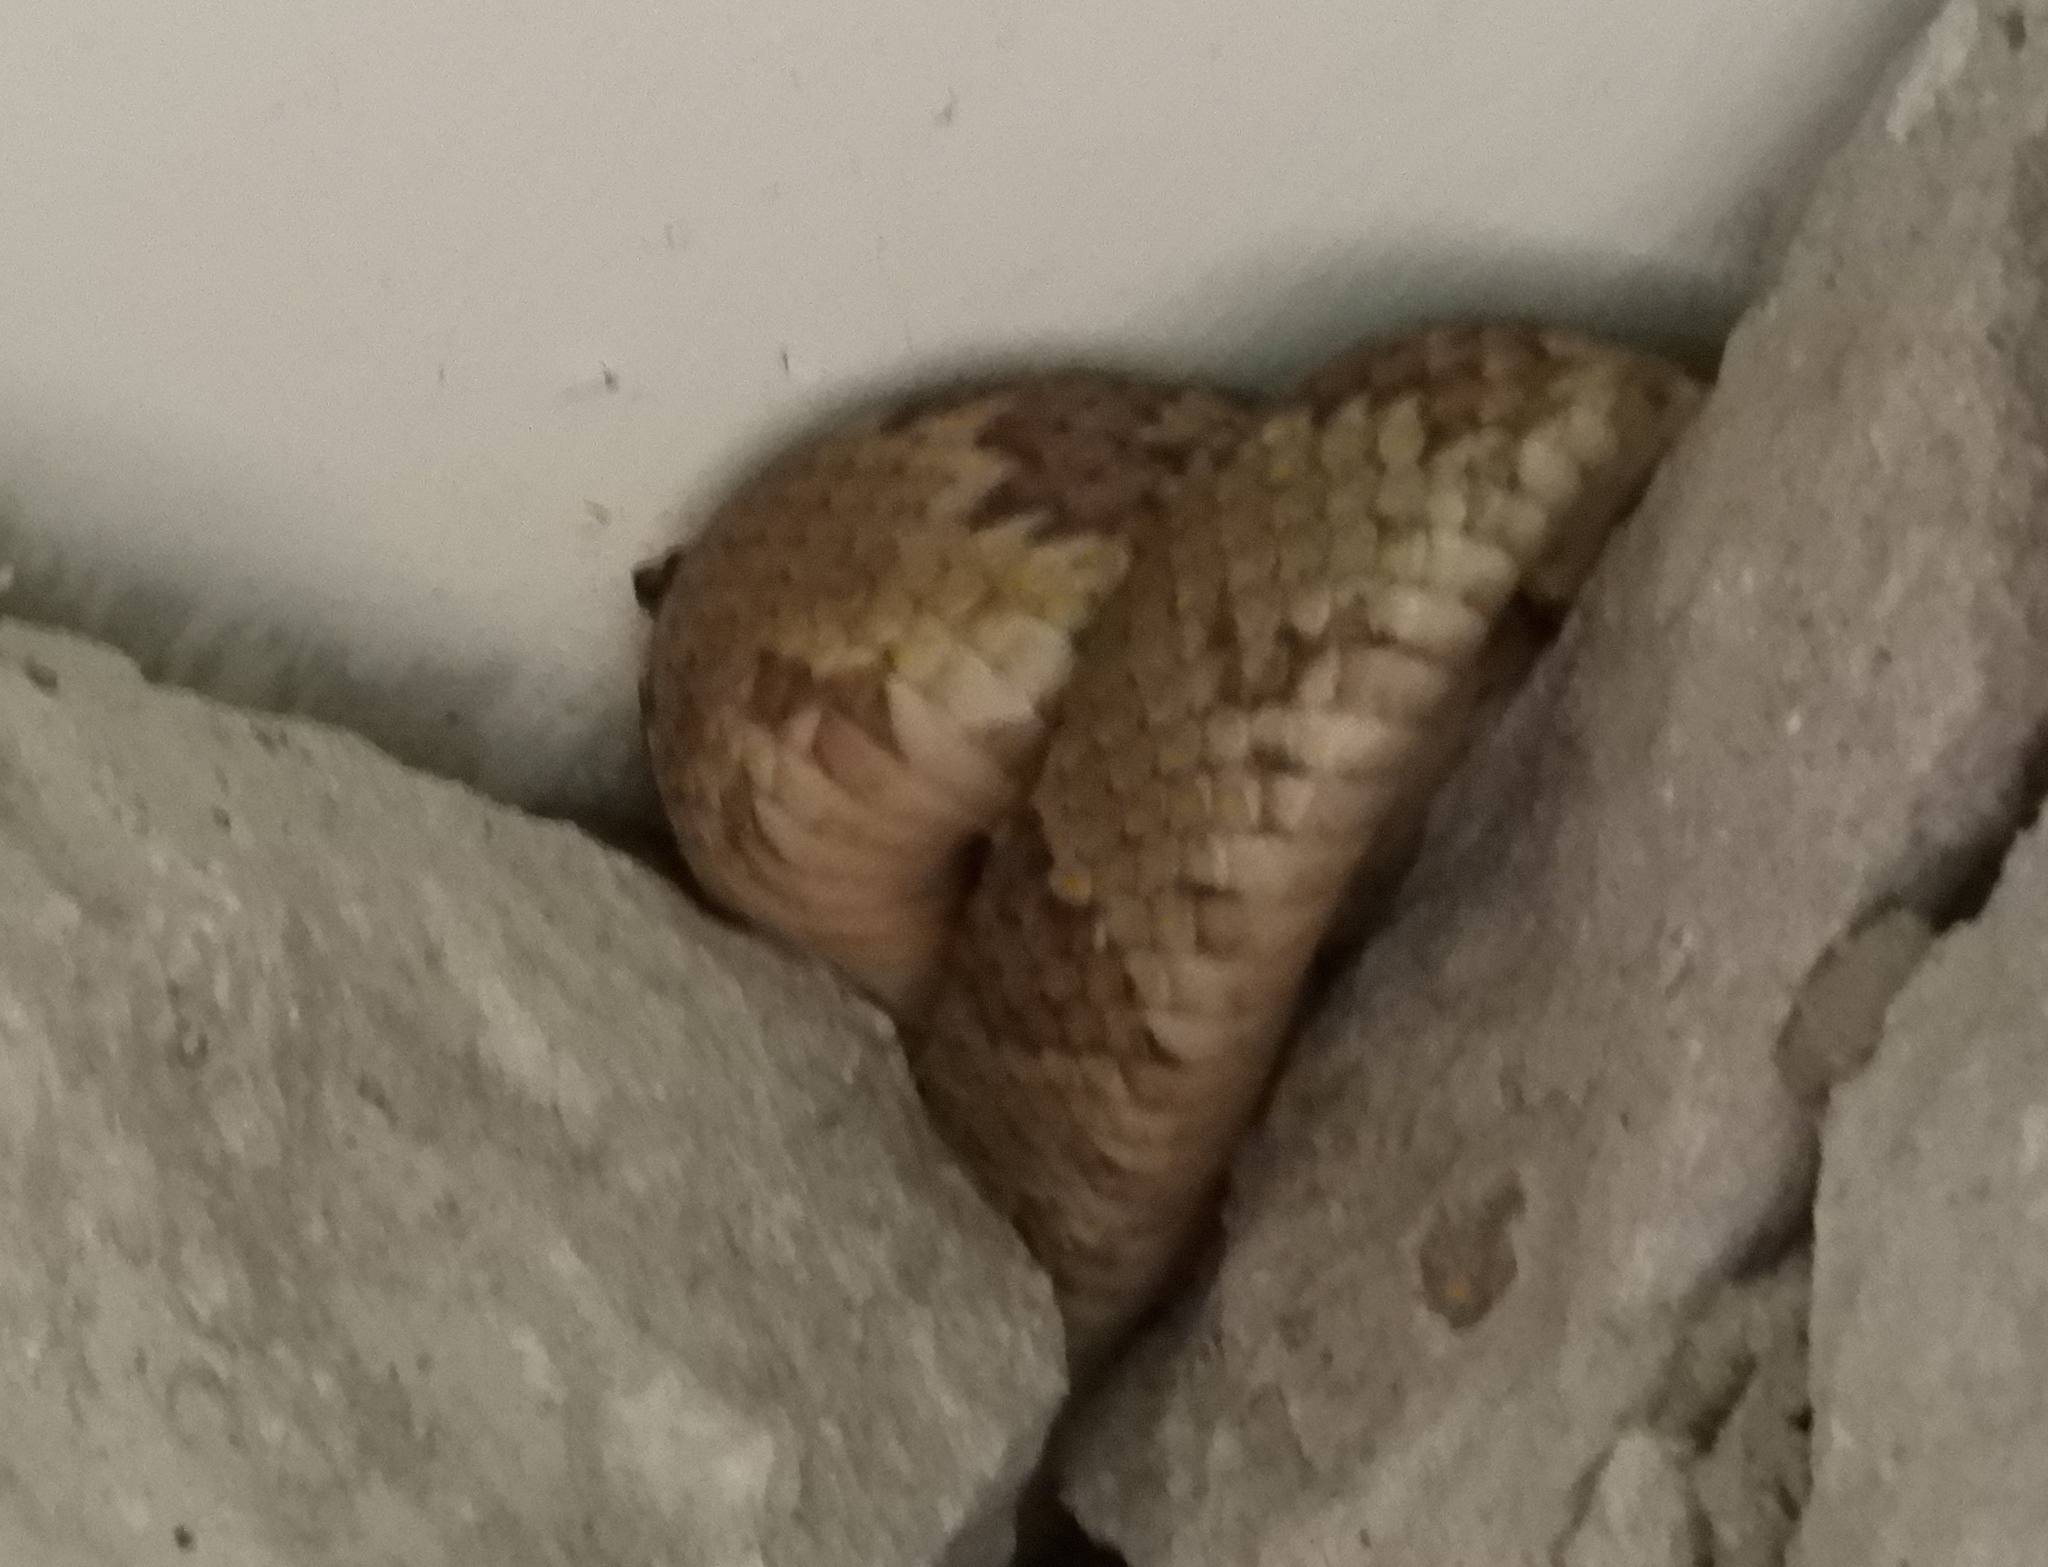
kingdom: Animalia
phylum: Chordata
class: Squamata
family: Colubridae
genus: Trimorphodon
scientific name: Trimorphodon paucimaculatus
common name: Sinaloan lyresnake
